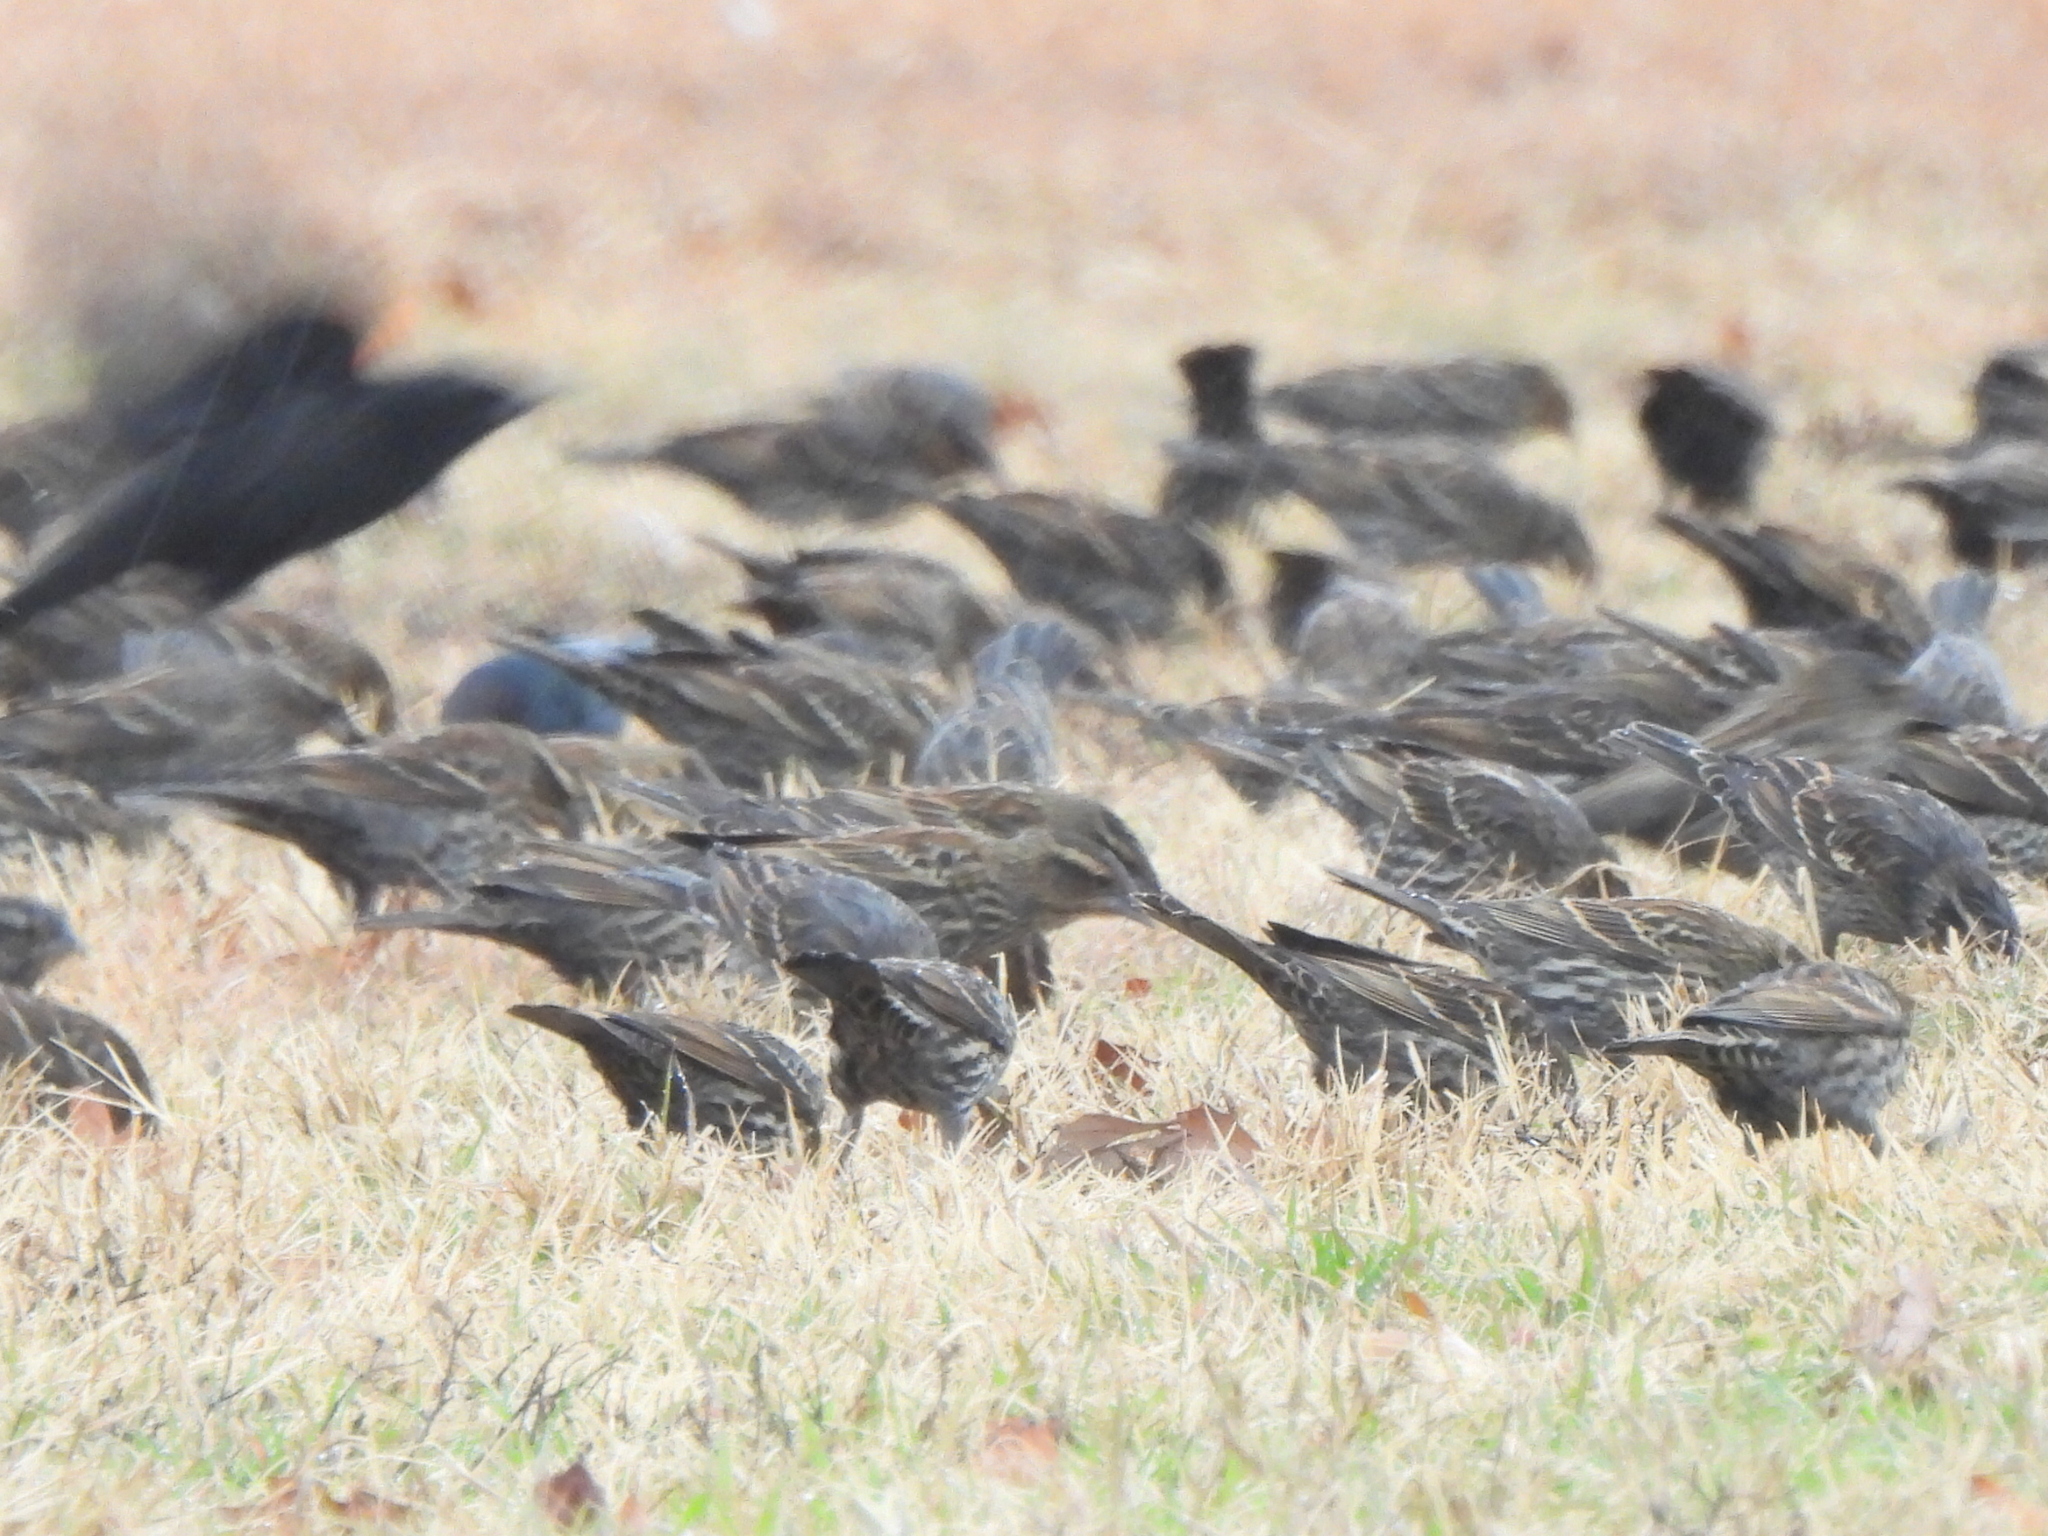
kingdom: Animalia
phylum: Chordata
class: Aves
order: Passeriformes
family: Icteridae
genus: Agelaius
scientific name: Agelaius phoeniceus
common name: Red-winged blackbird
